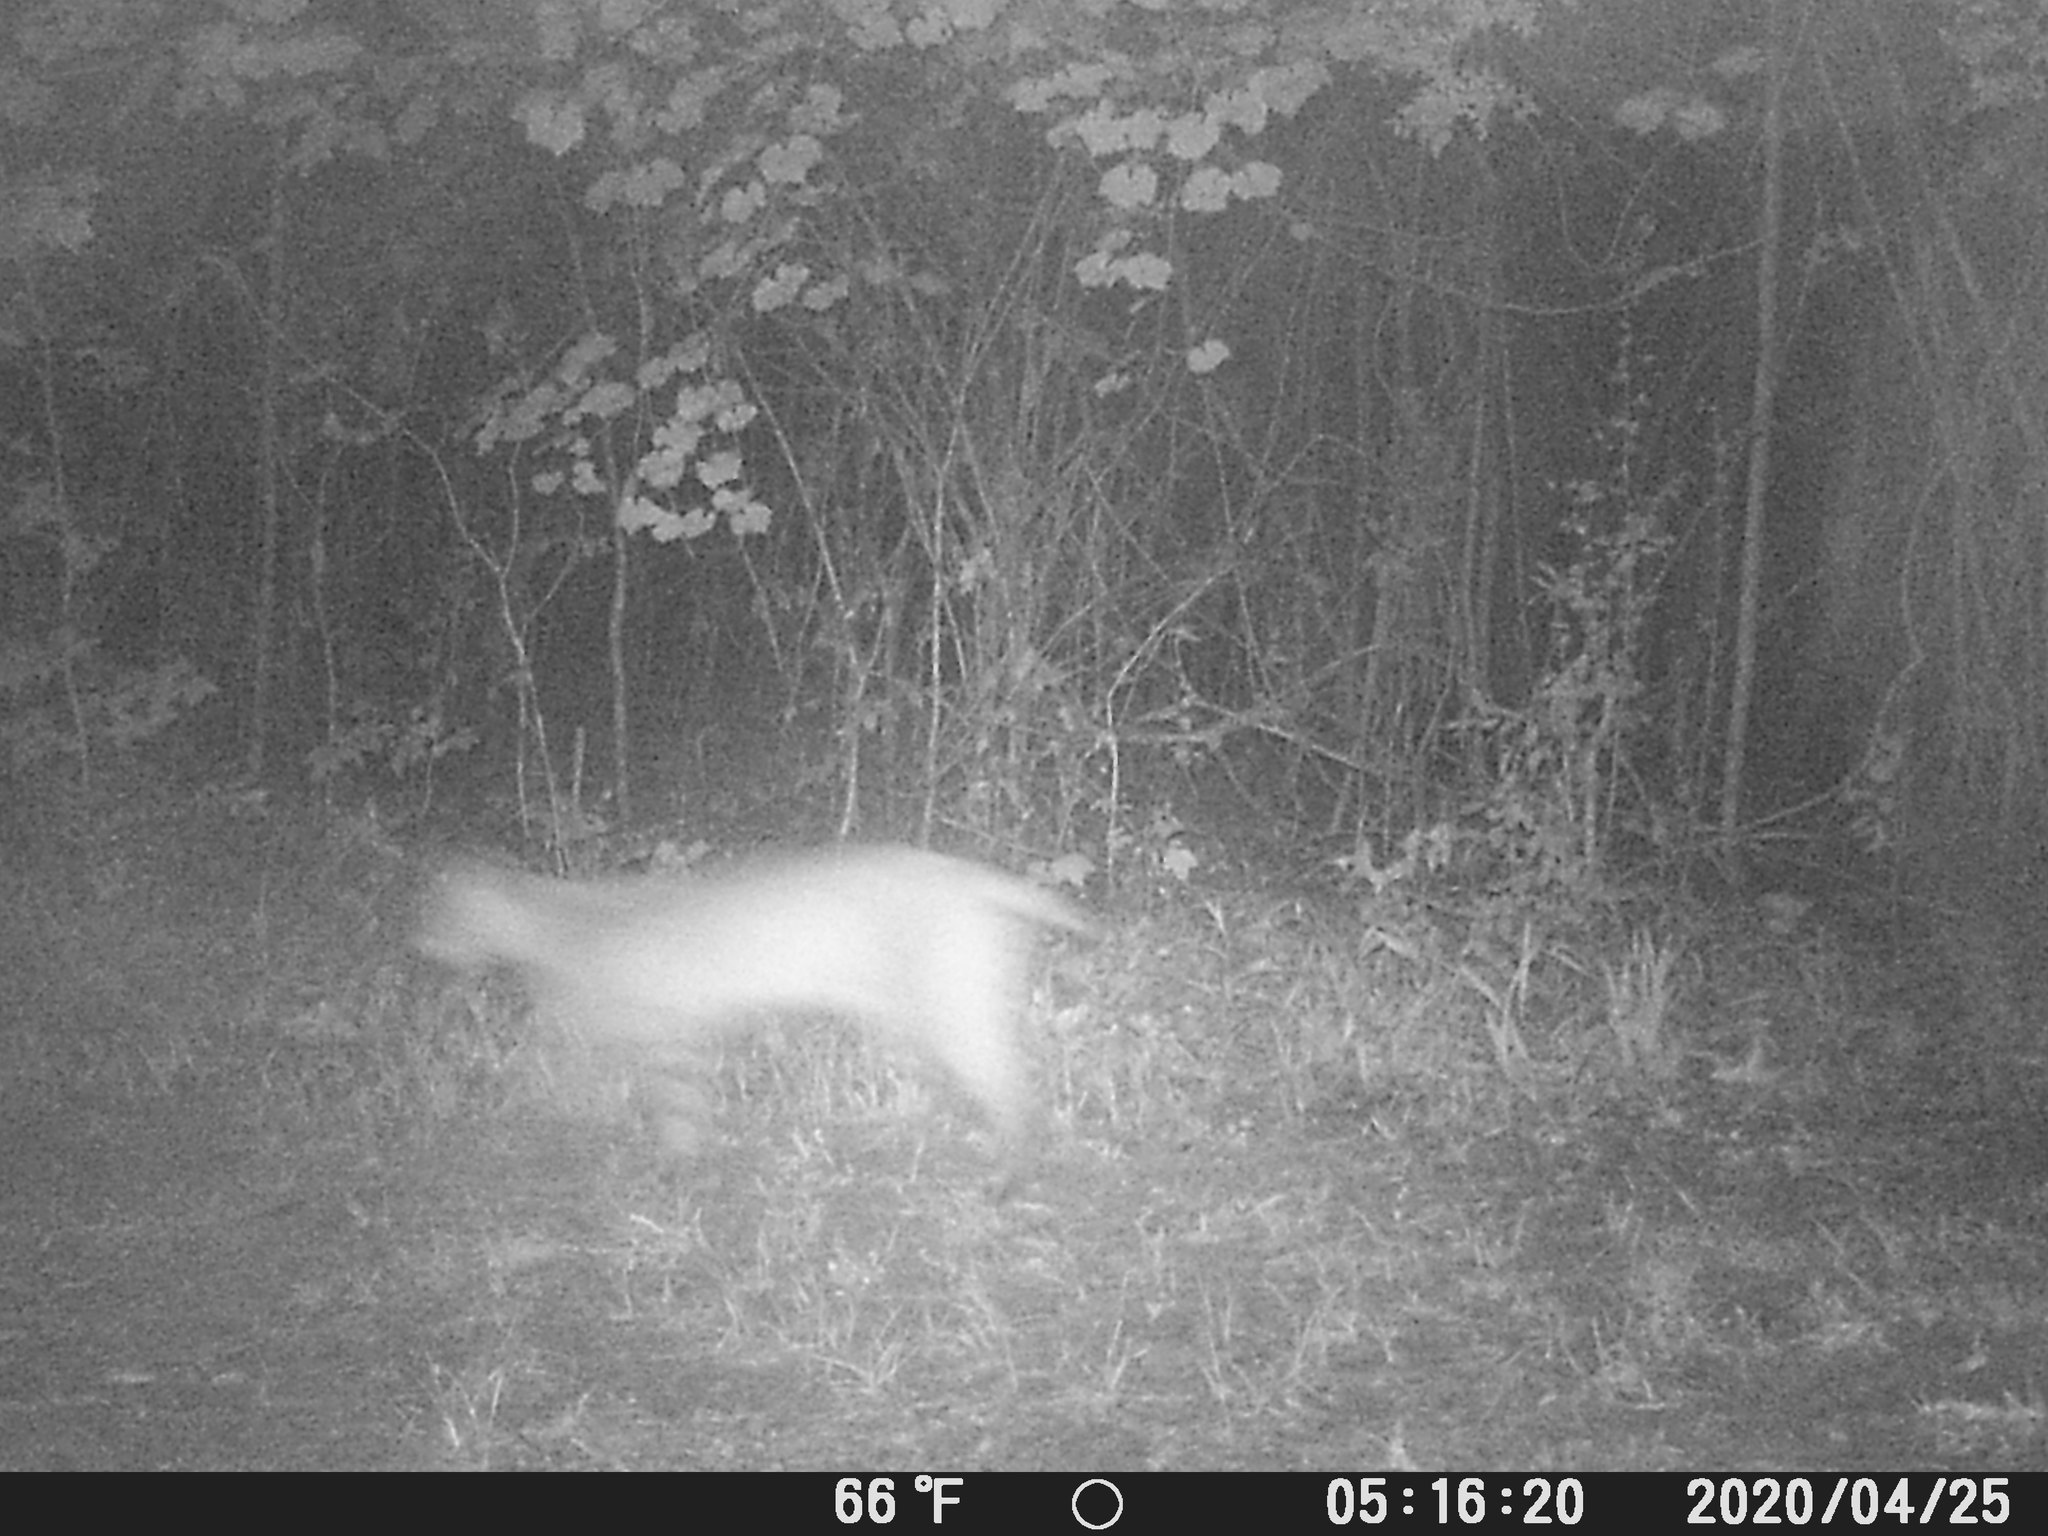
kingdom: Animalia
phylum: Chordata
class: Mammalia
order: Carnivora
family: Felidae
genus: Lynx
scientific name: Lynx rufus
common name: Bobcat
